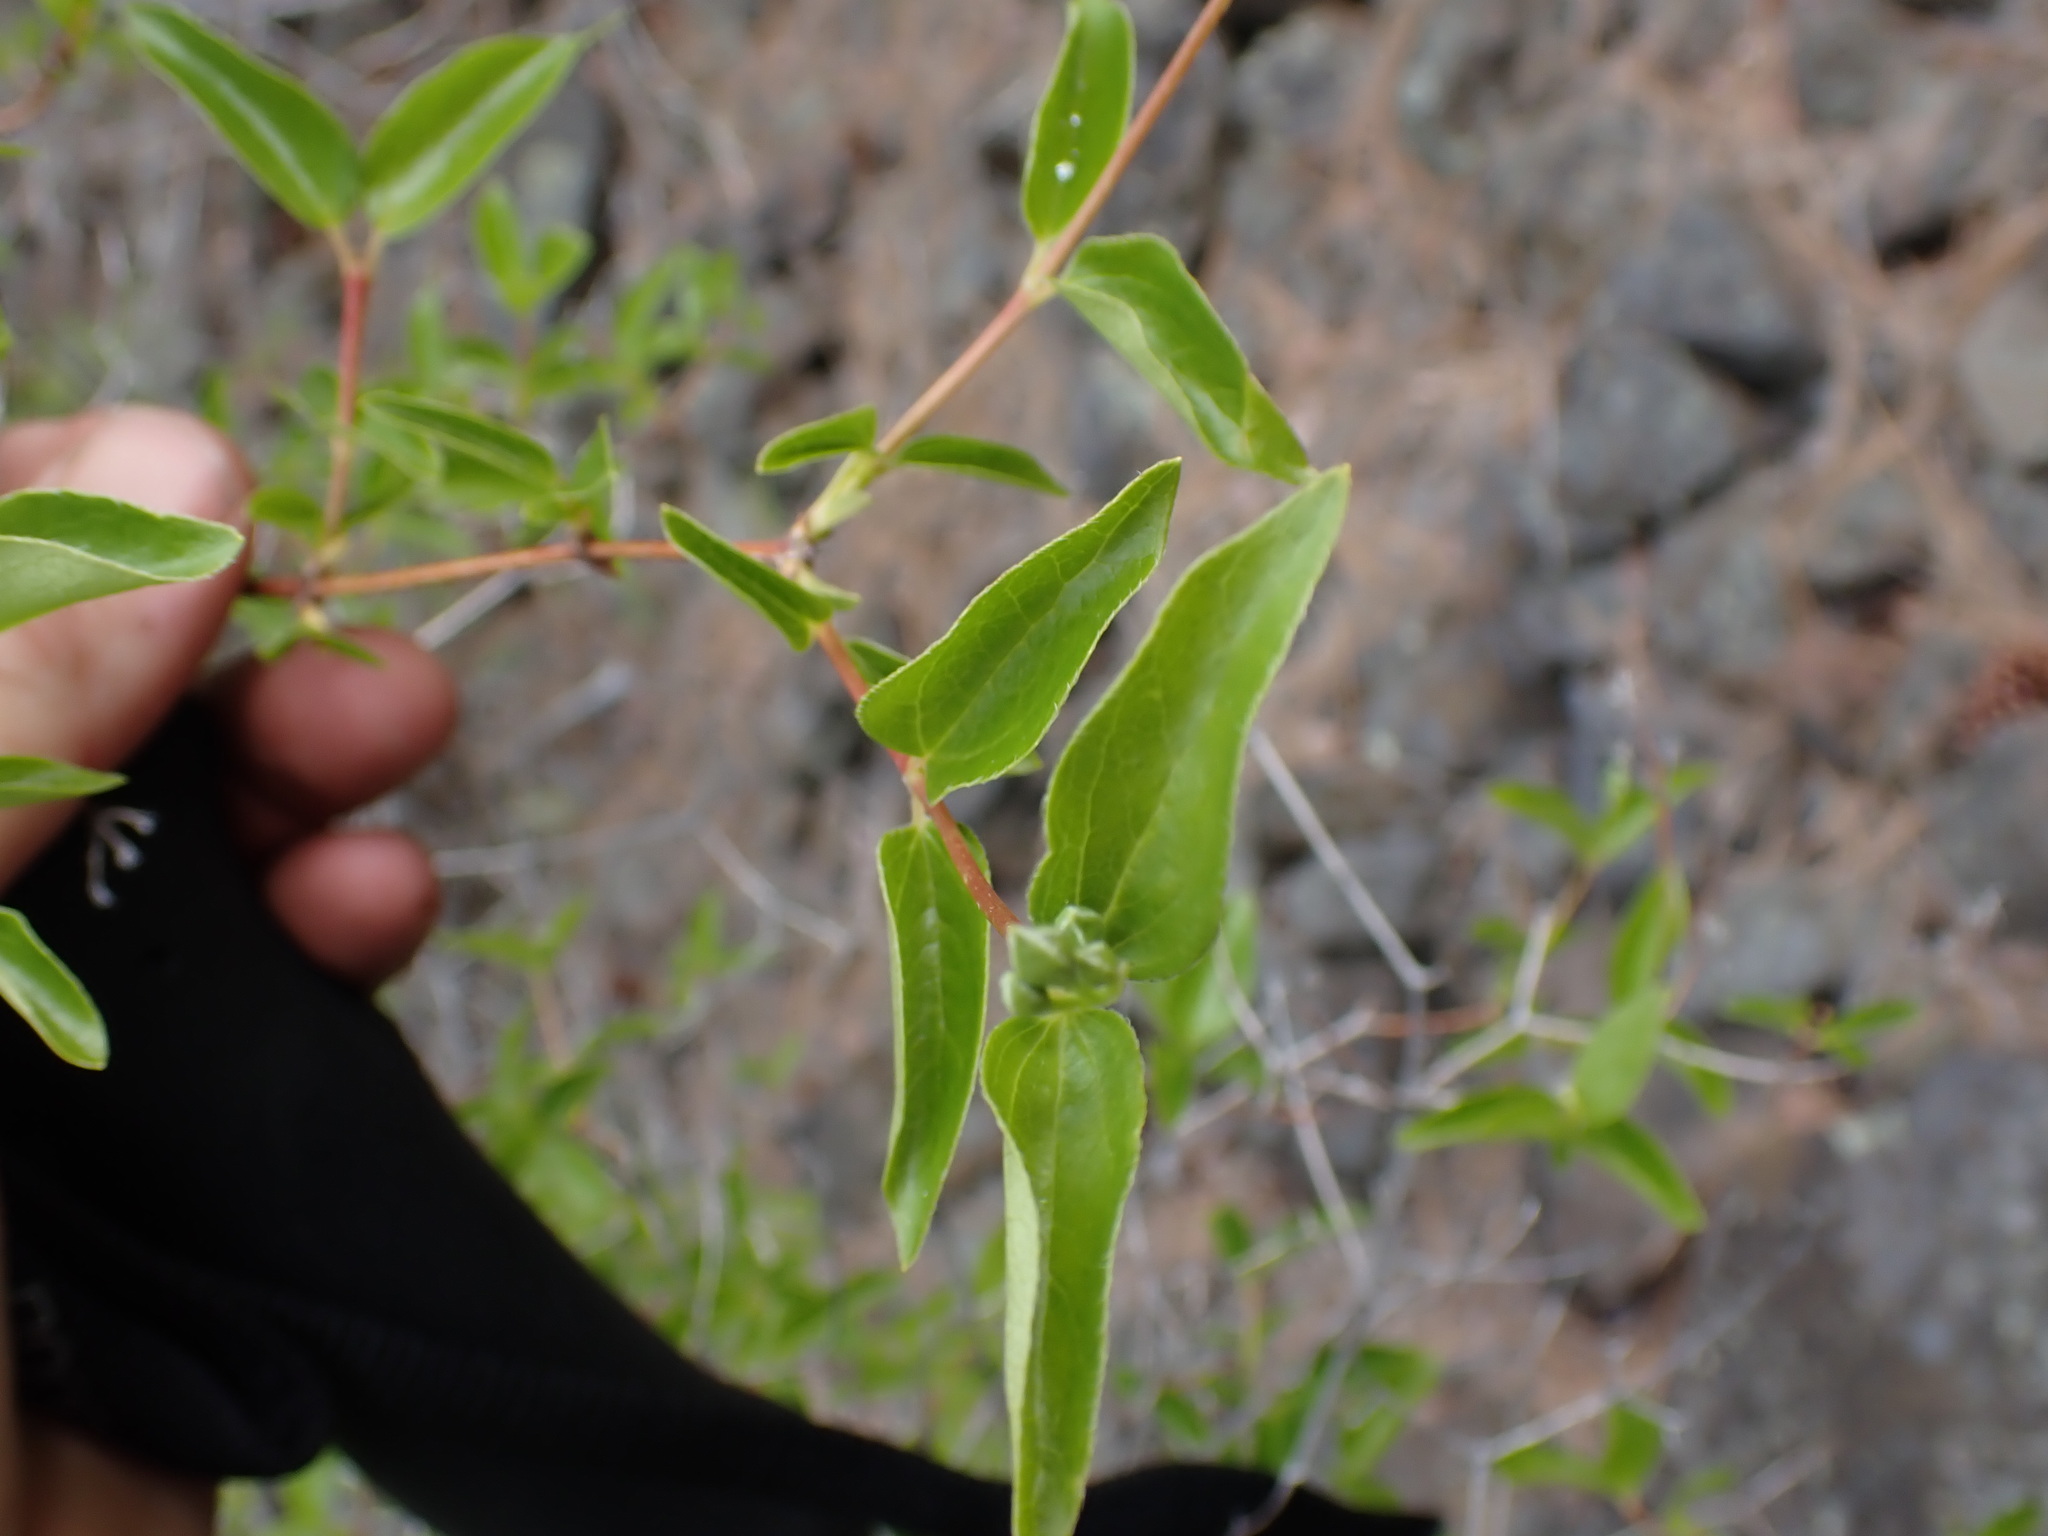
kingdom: Plantae
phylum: Tracheophyta
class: Magnoliopsida
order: Cornales
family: Hydrangeaceae
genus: Philadelphus
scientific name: Philadelphus lewisii
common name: Lewis's mock orange
